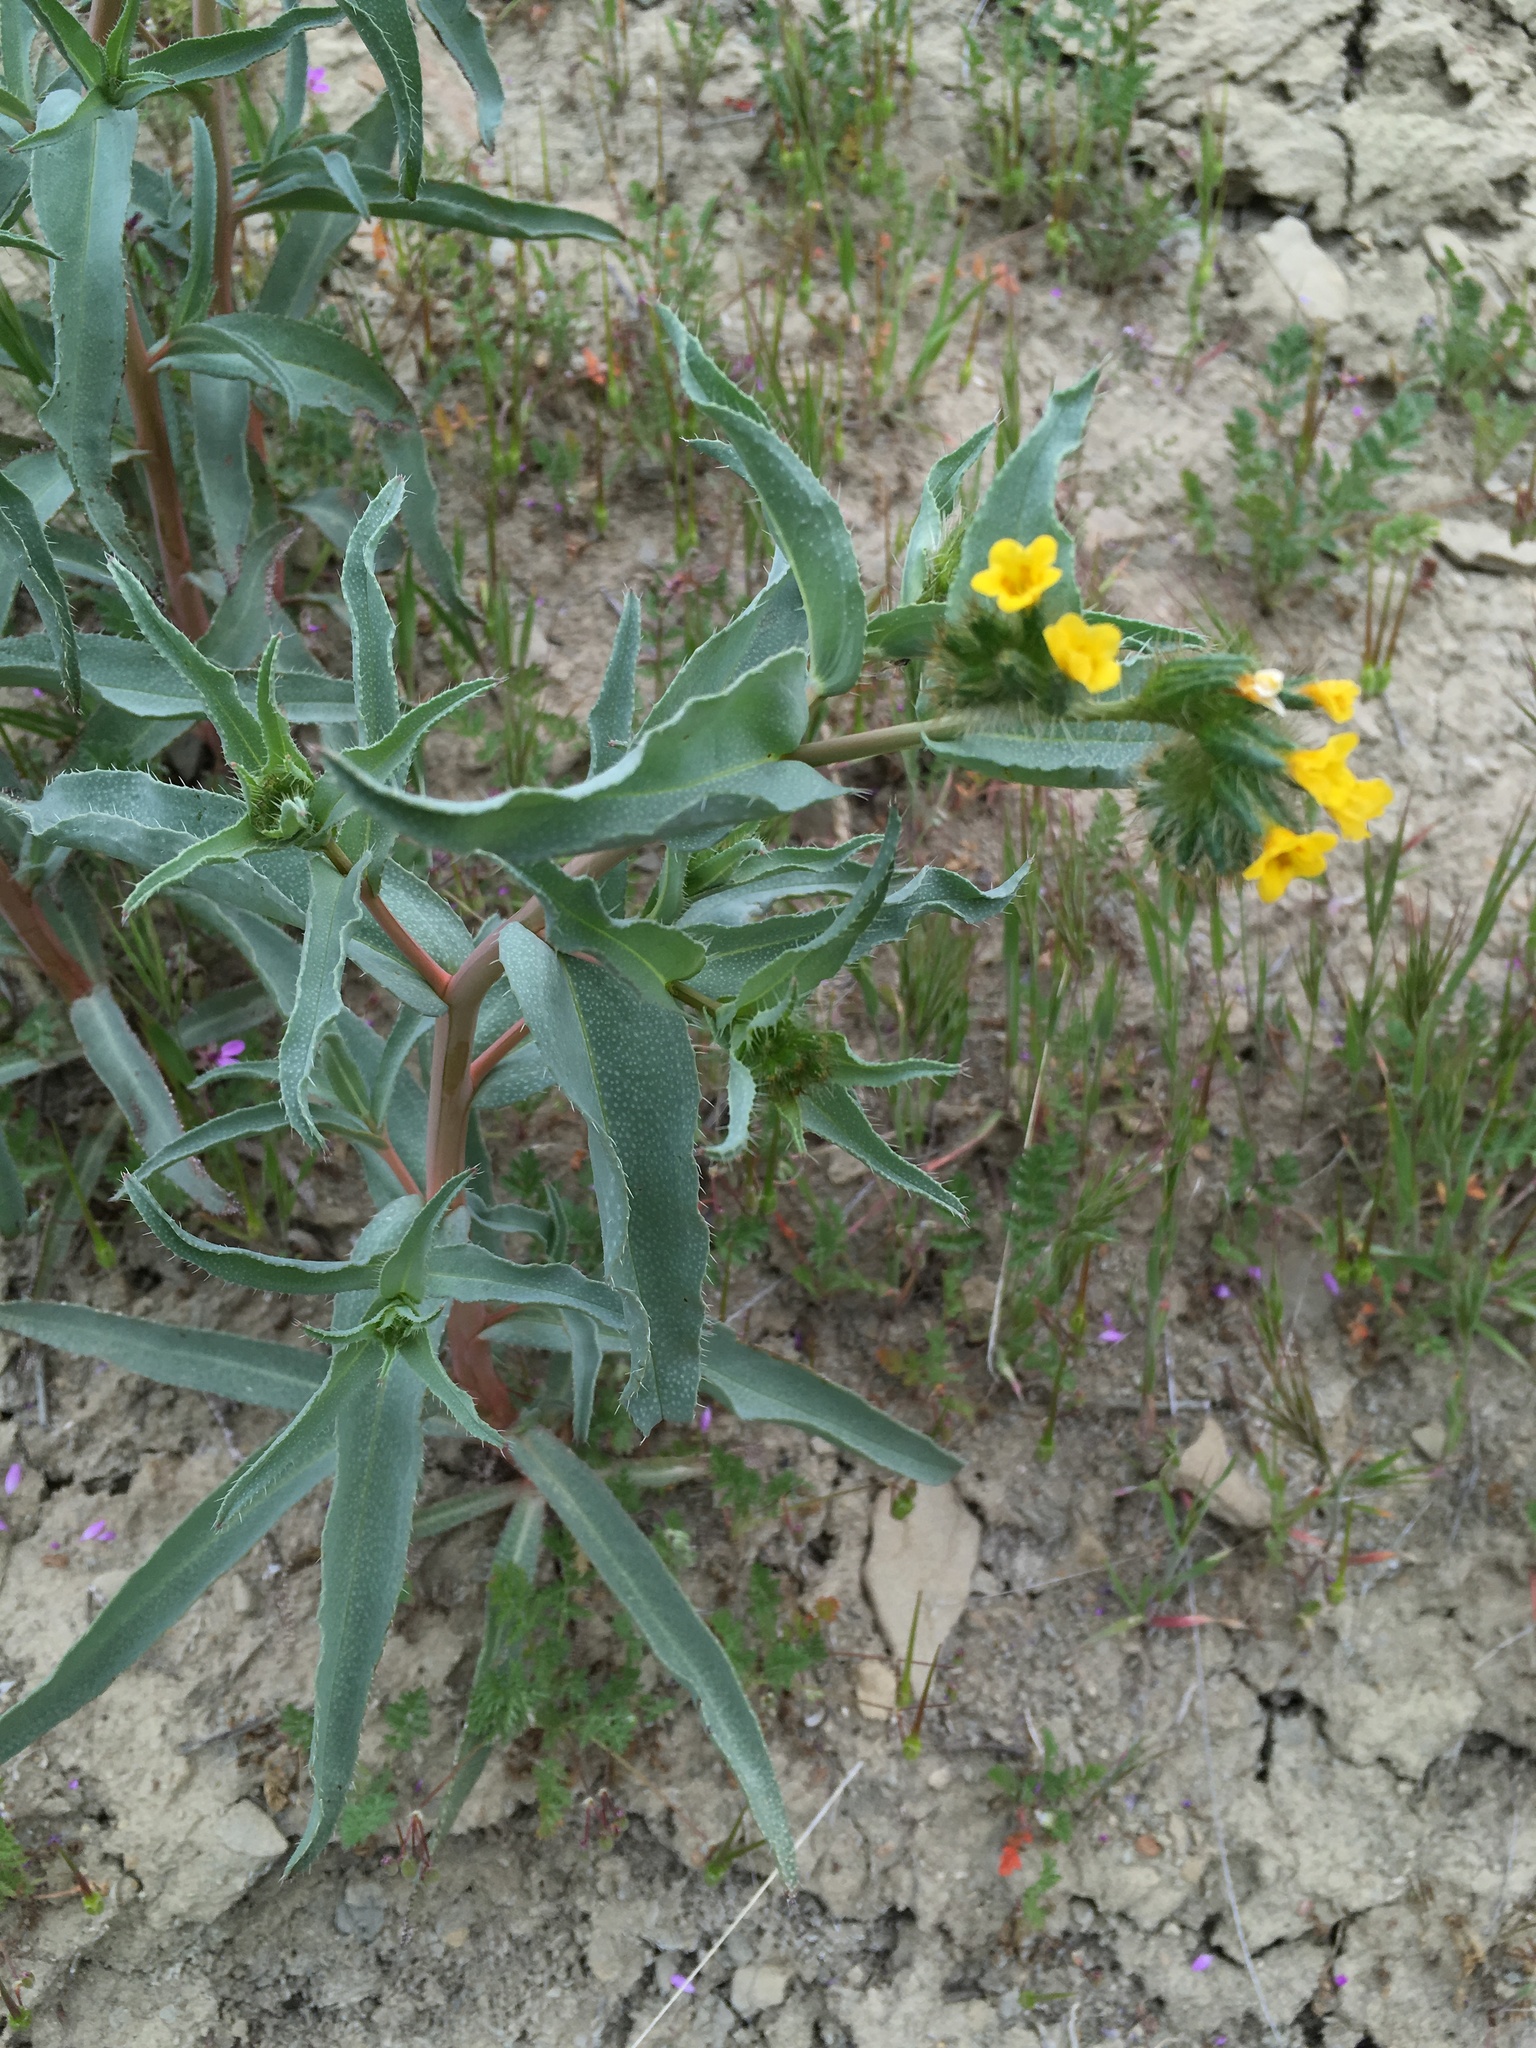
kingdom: Plantae
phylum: Tracheophyta
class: Magnoliopsida
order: Boraginales
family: Boraginaceae
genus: Amsinckia
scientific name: Amsinckia vernicosa
